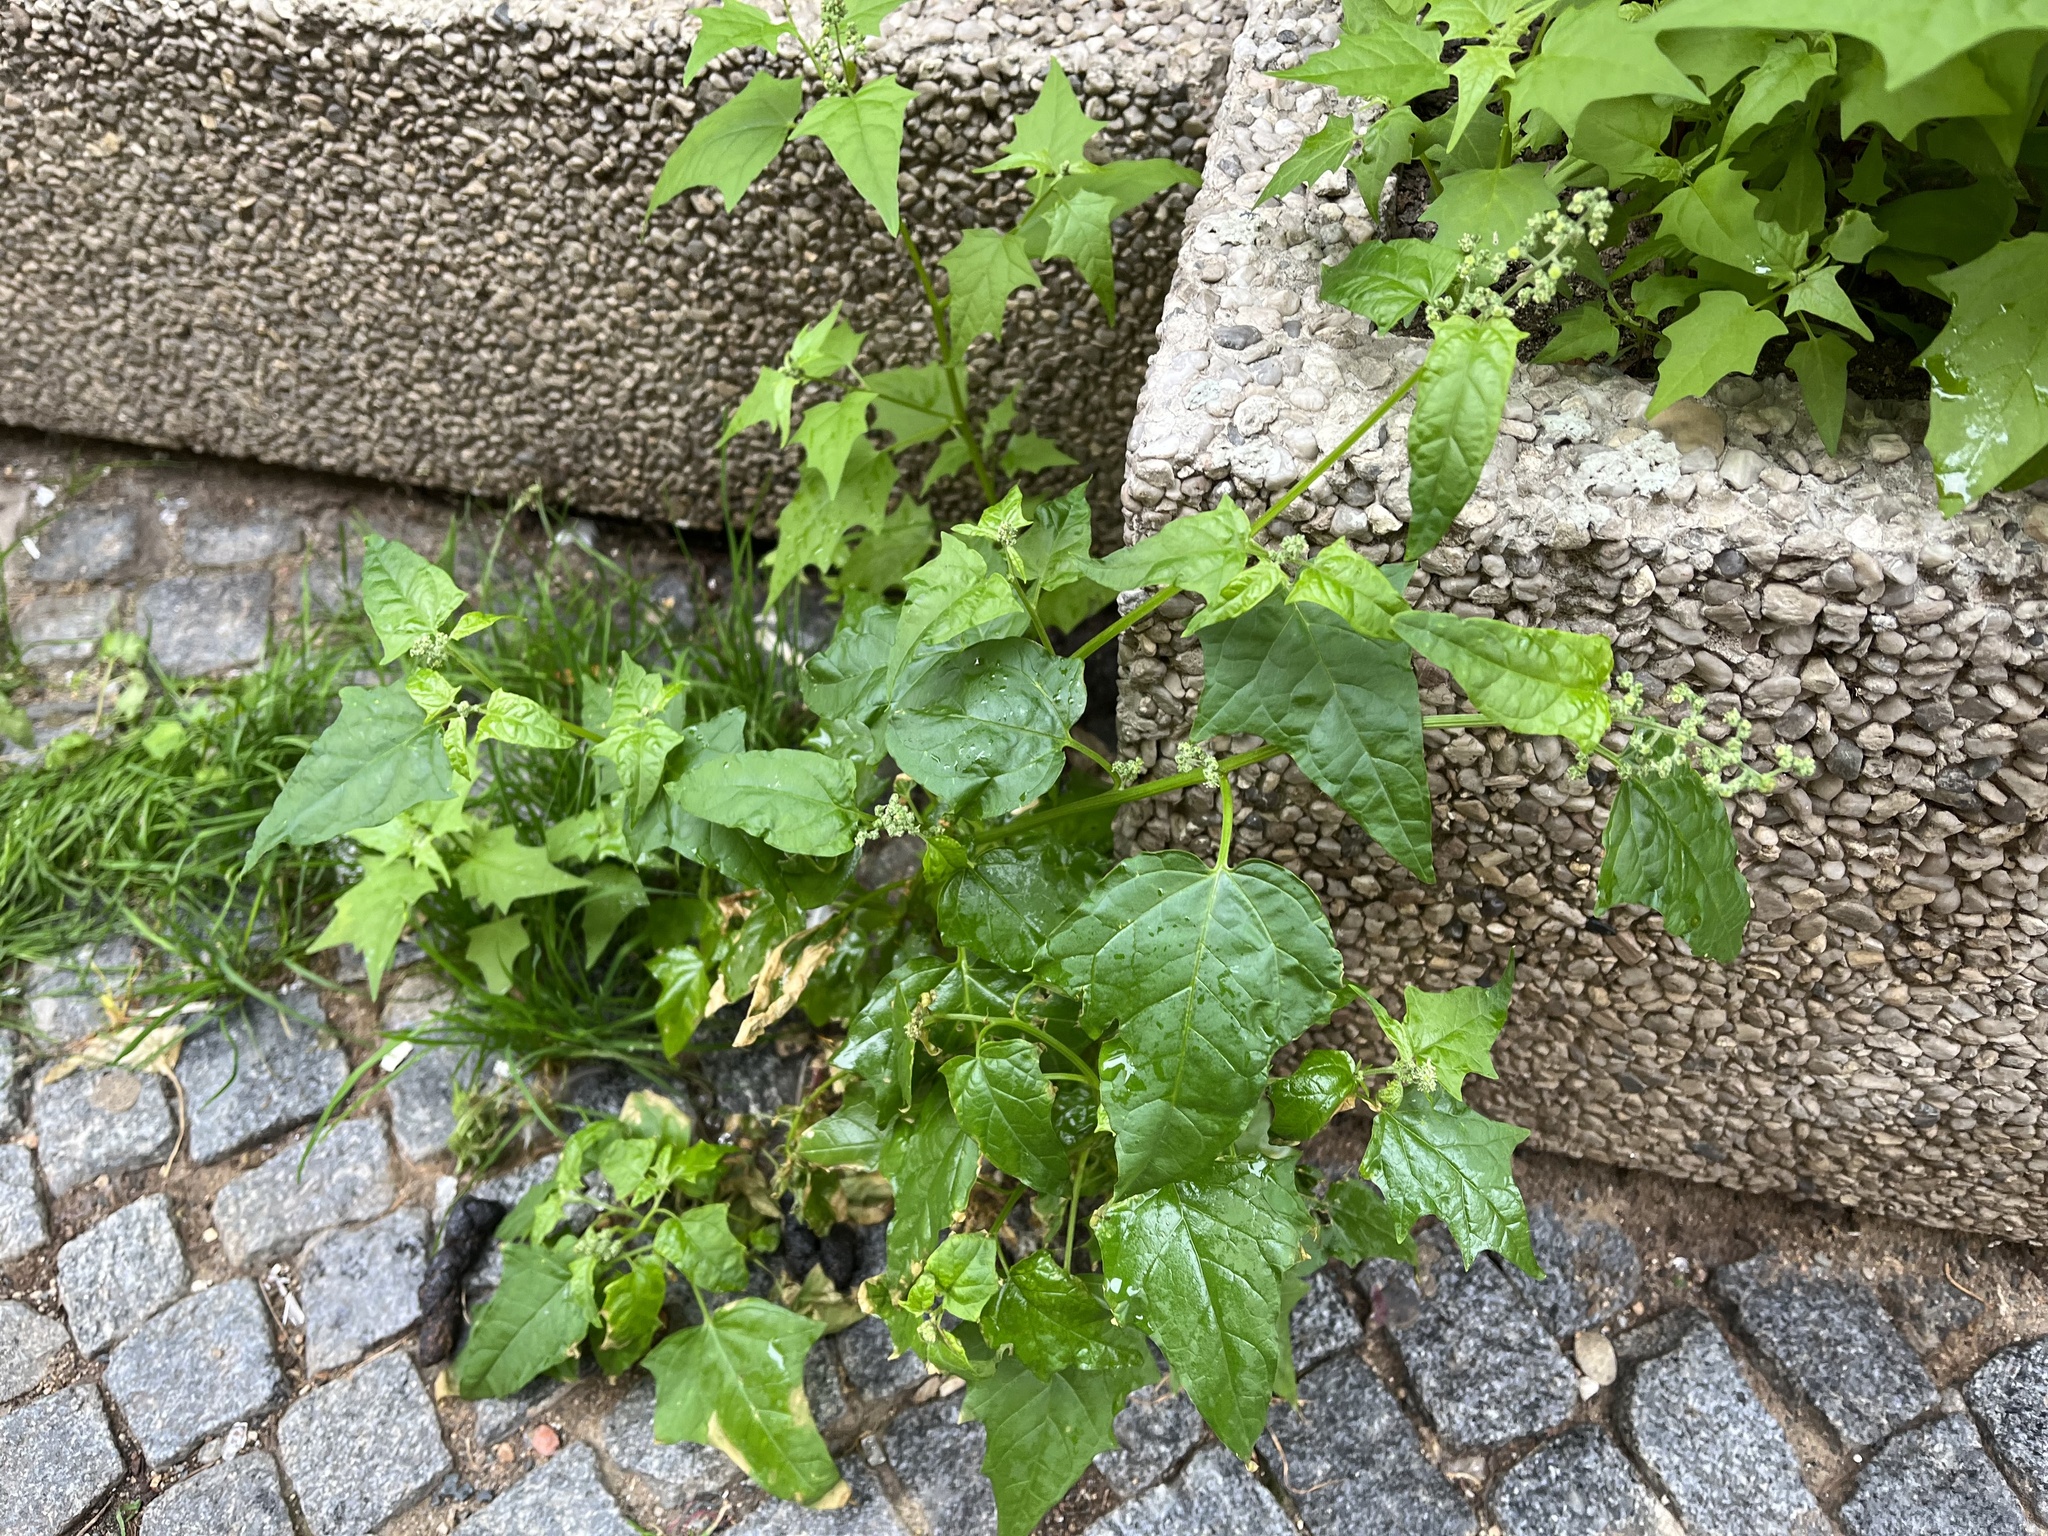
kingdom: Plantae
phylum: Tracheophyta
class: Magnoliopsida
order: Caryophyllales
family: Amaranthaceae
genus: Chenopodiastrum
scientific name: Chenopodiastrum hybridum
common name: Mapleleaf goosefoot
